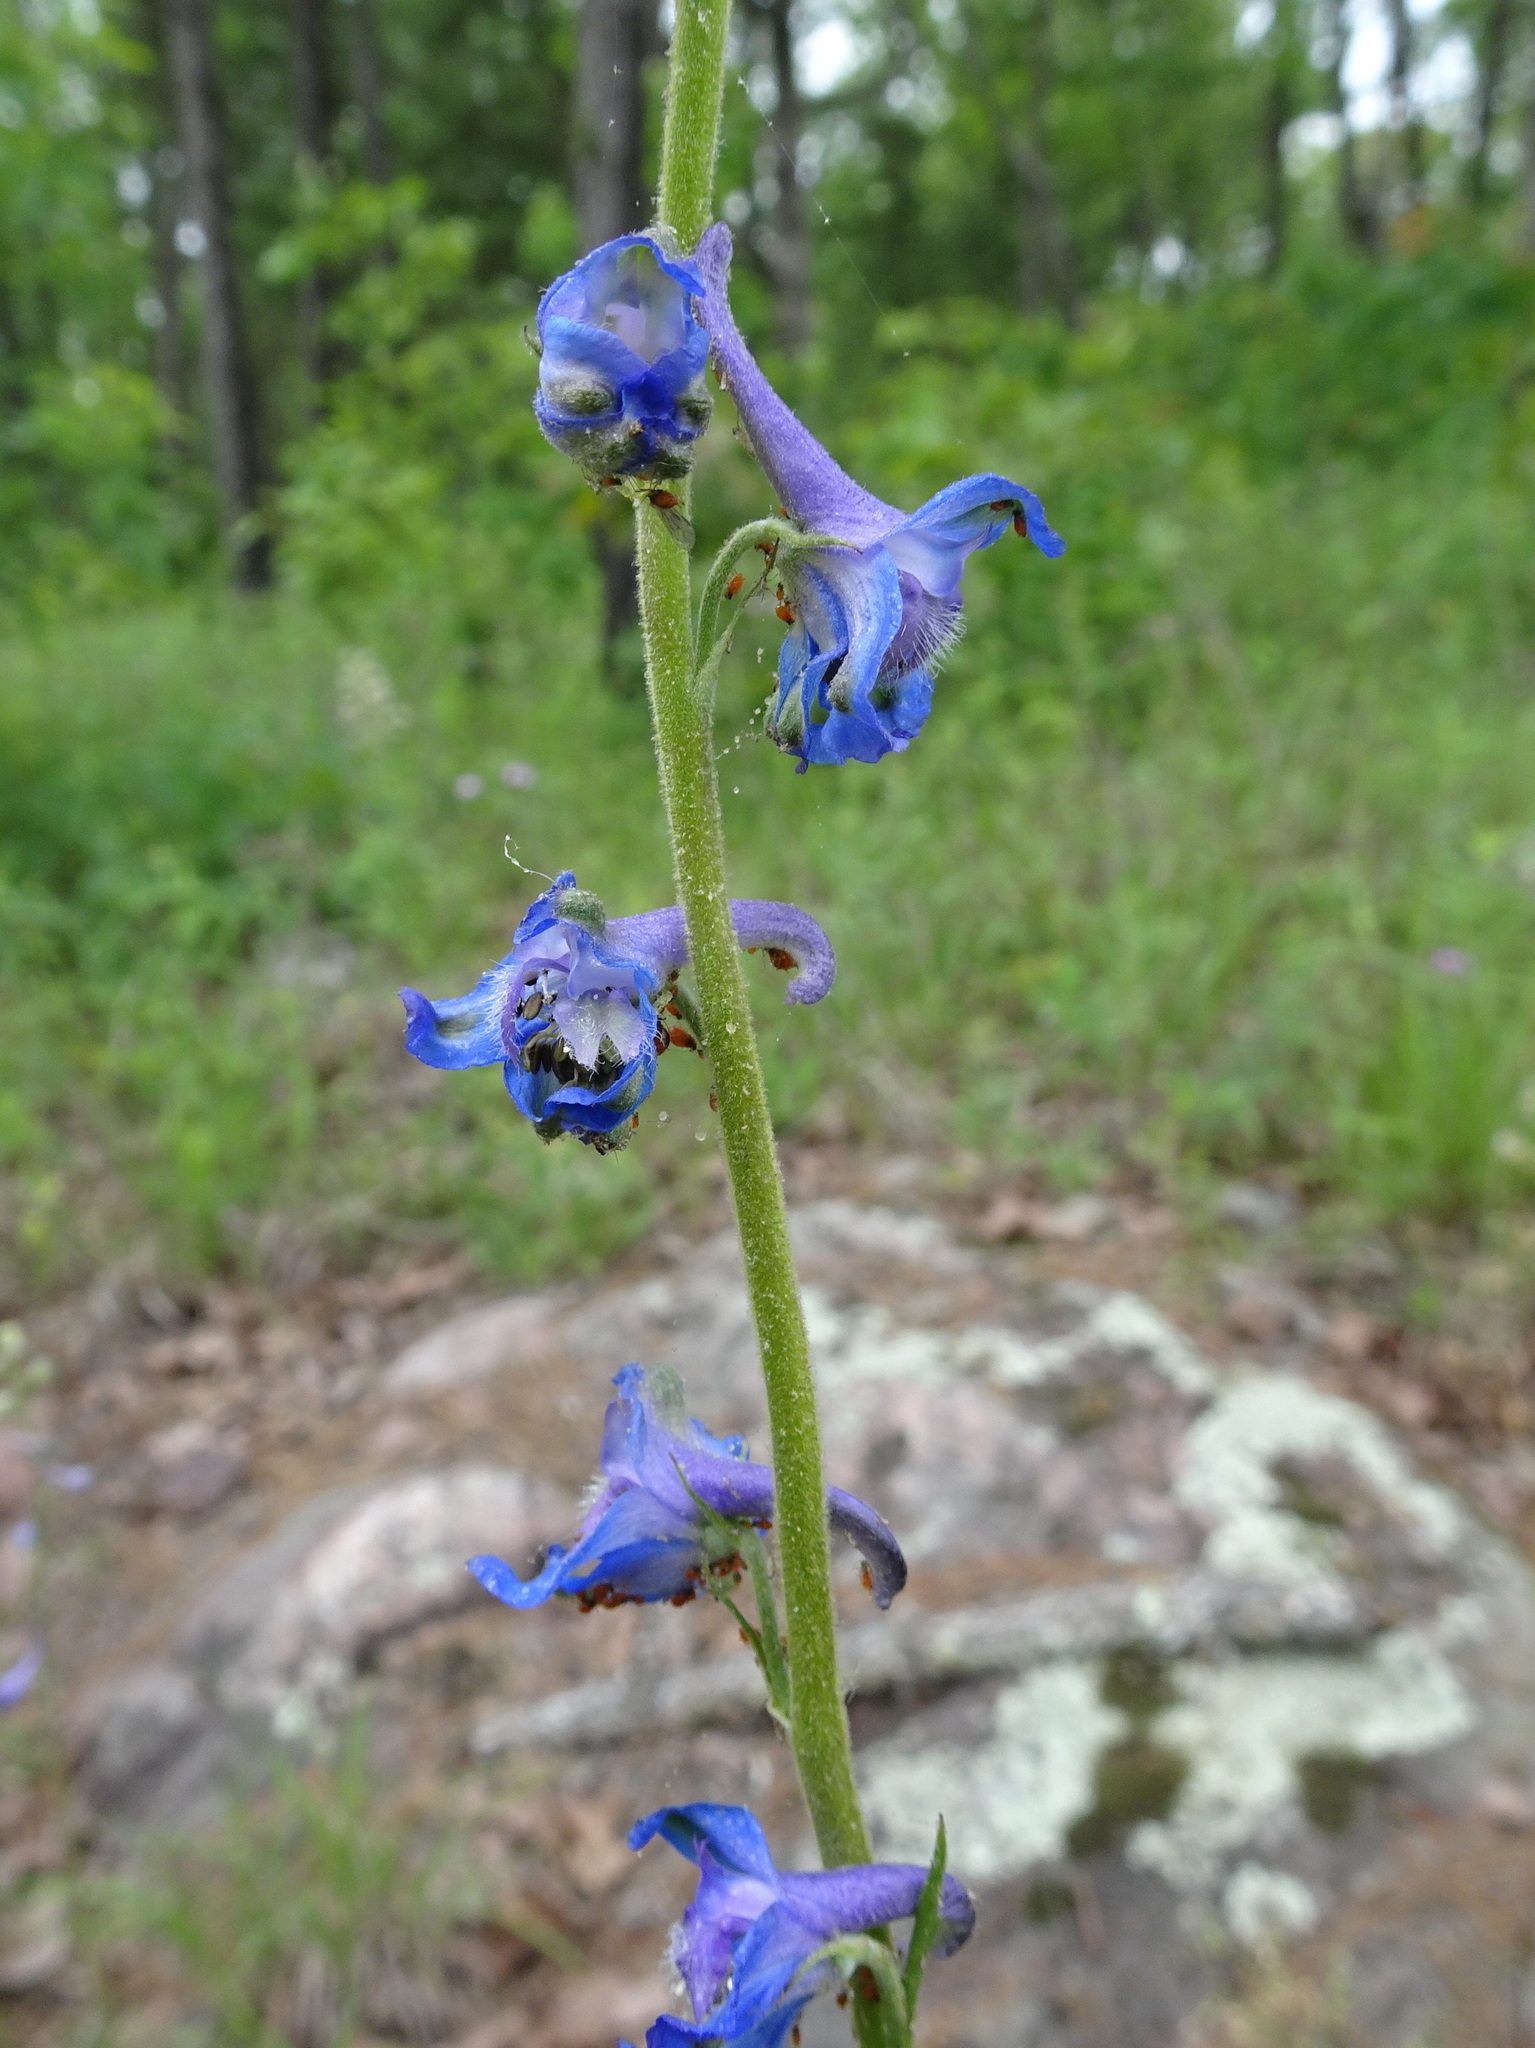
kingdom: Plantae
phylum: Tracheophyta
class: Magnoliopsida
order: Ranunculales
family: Ranunculaceae
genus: Delphinium
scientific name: Delphinium carolinianum
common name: Carolina larkspur
